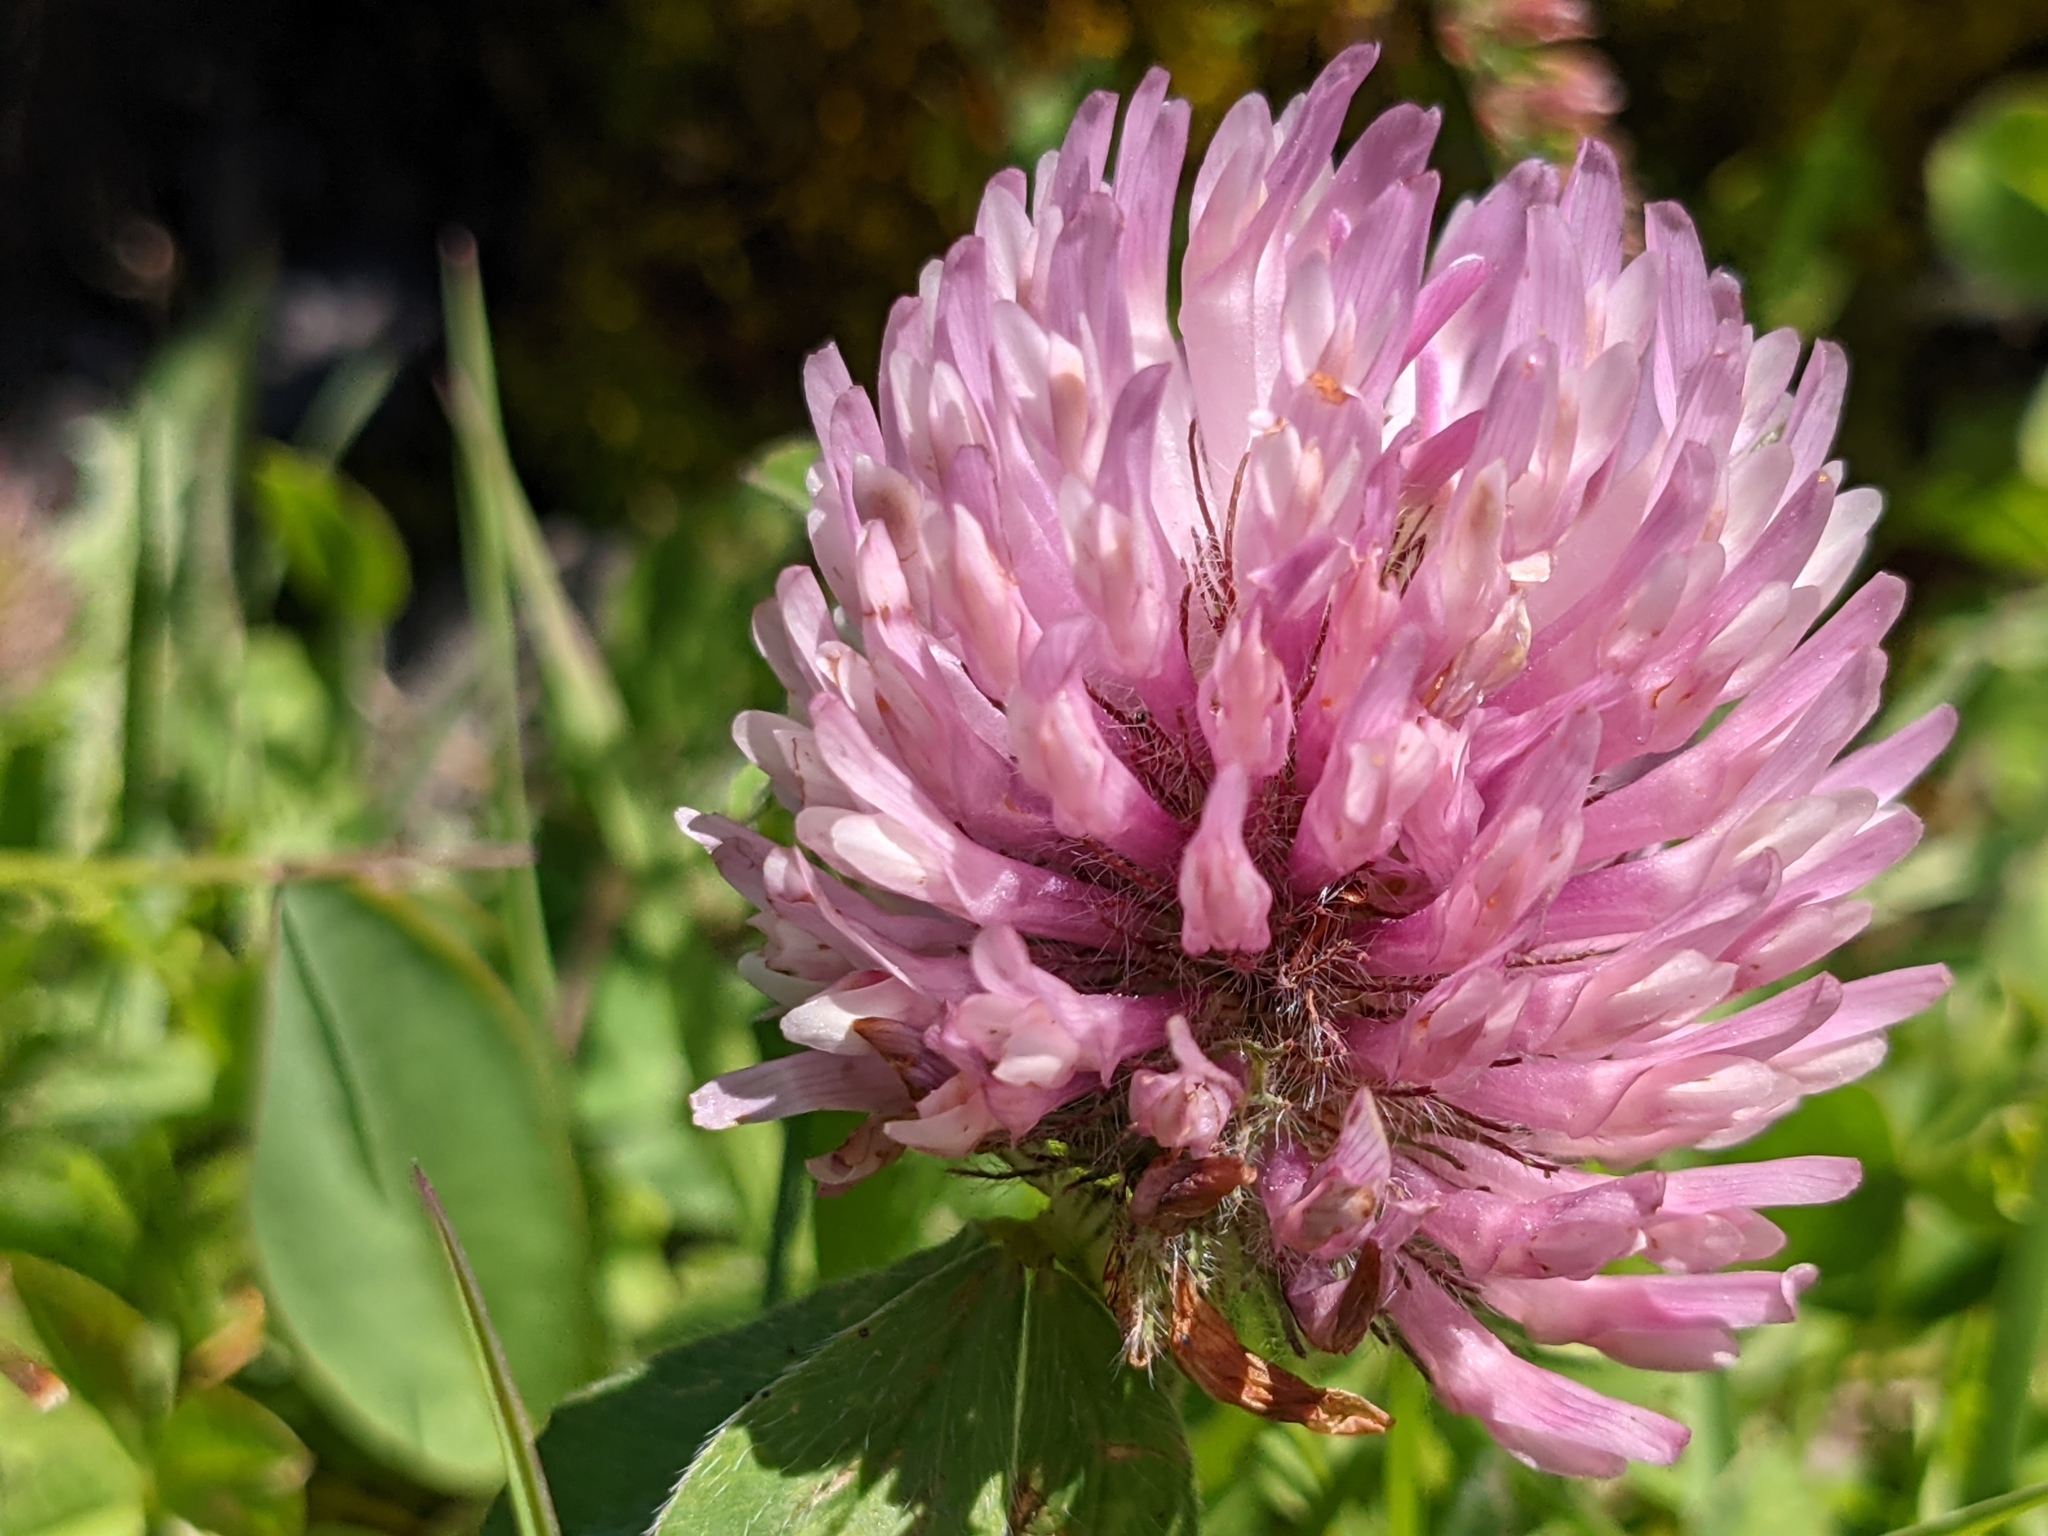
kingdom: Plantae
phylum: Tracheophyta
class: Magnoliopsida
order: Fabales
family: Fabaceae
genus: Trifolium
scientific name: Trifolium pratense
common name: Red clover
